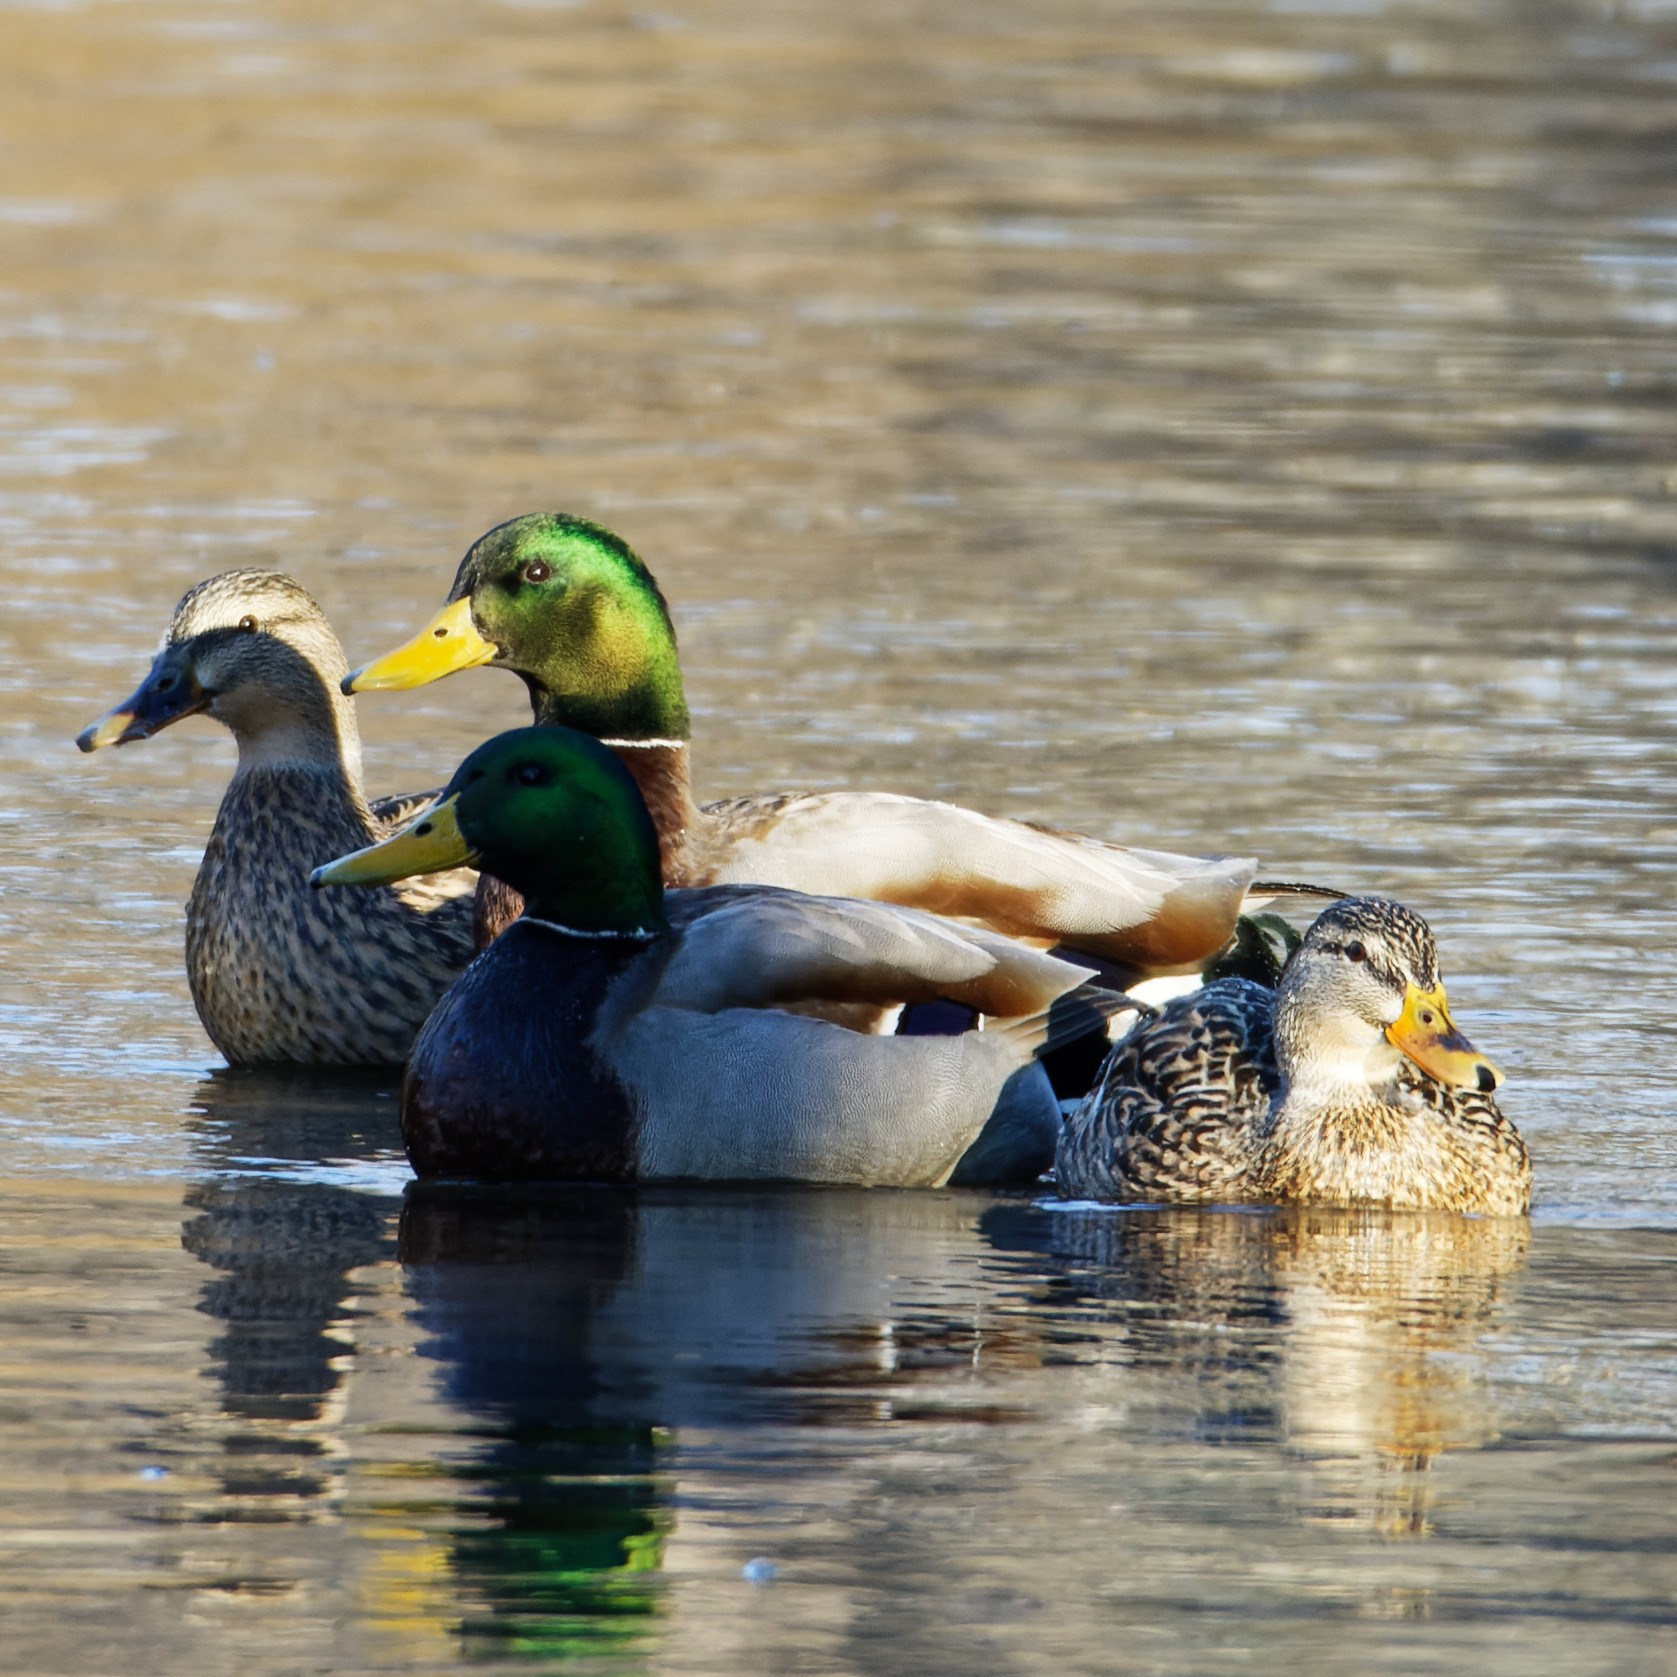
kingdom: Animalia
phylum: Chordata
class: Aves
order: Anseriformes
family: Anatidae
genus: Anas
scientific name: Anas platyrhynchos
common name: Mallard
